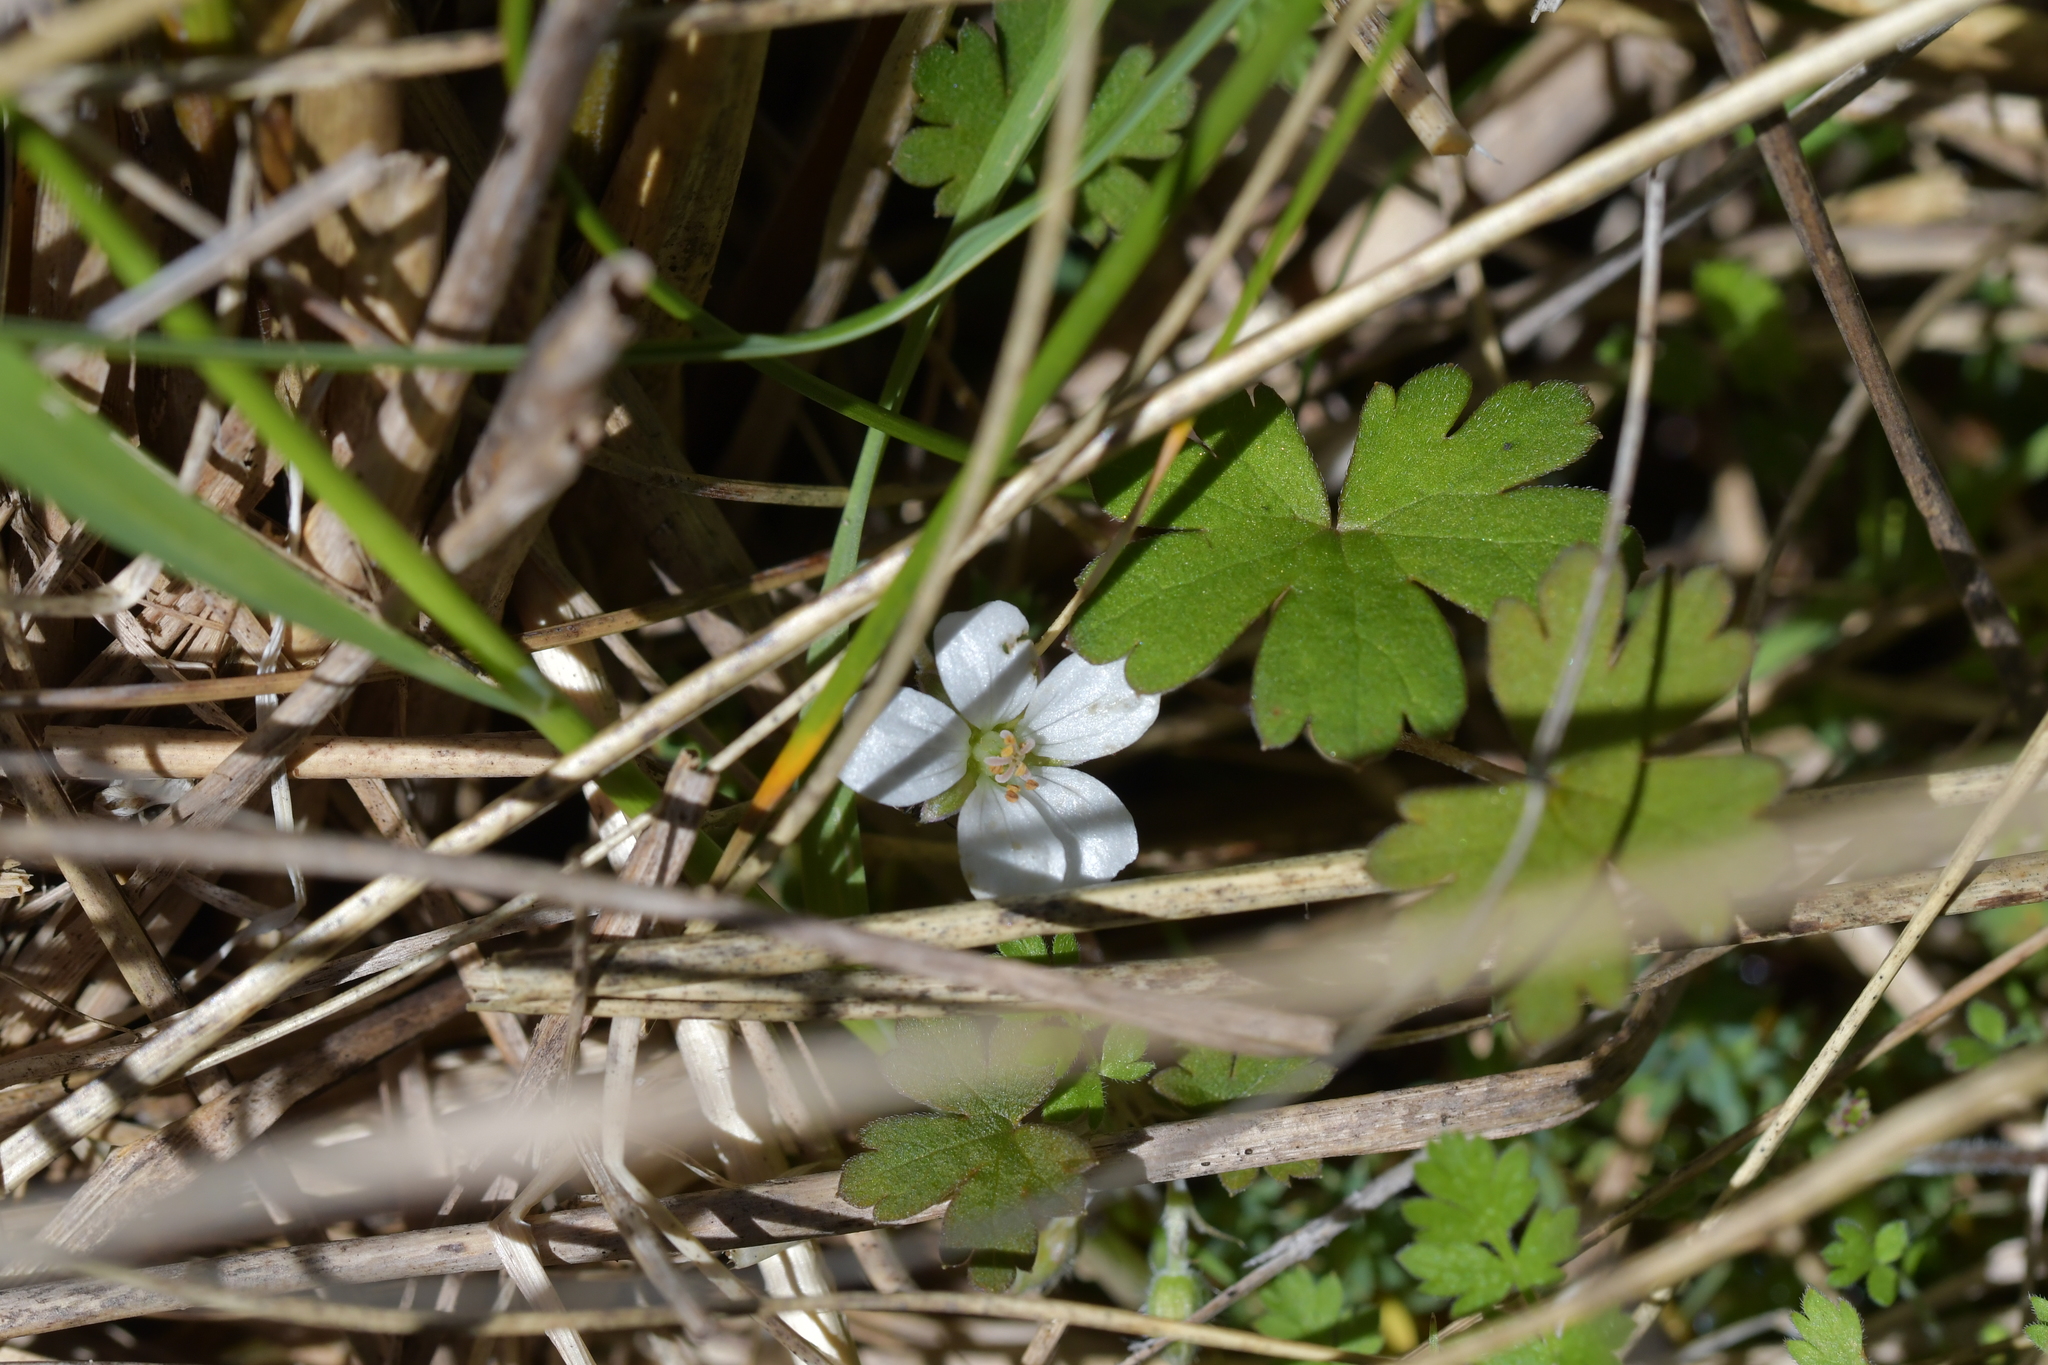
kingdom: Plantae
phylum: Tracheophyta
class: Magnoliopsida
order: Geraniales
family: Geraniaceae
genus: Geranium
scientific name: Geranium brevicaule
